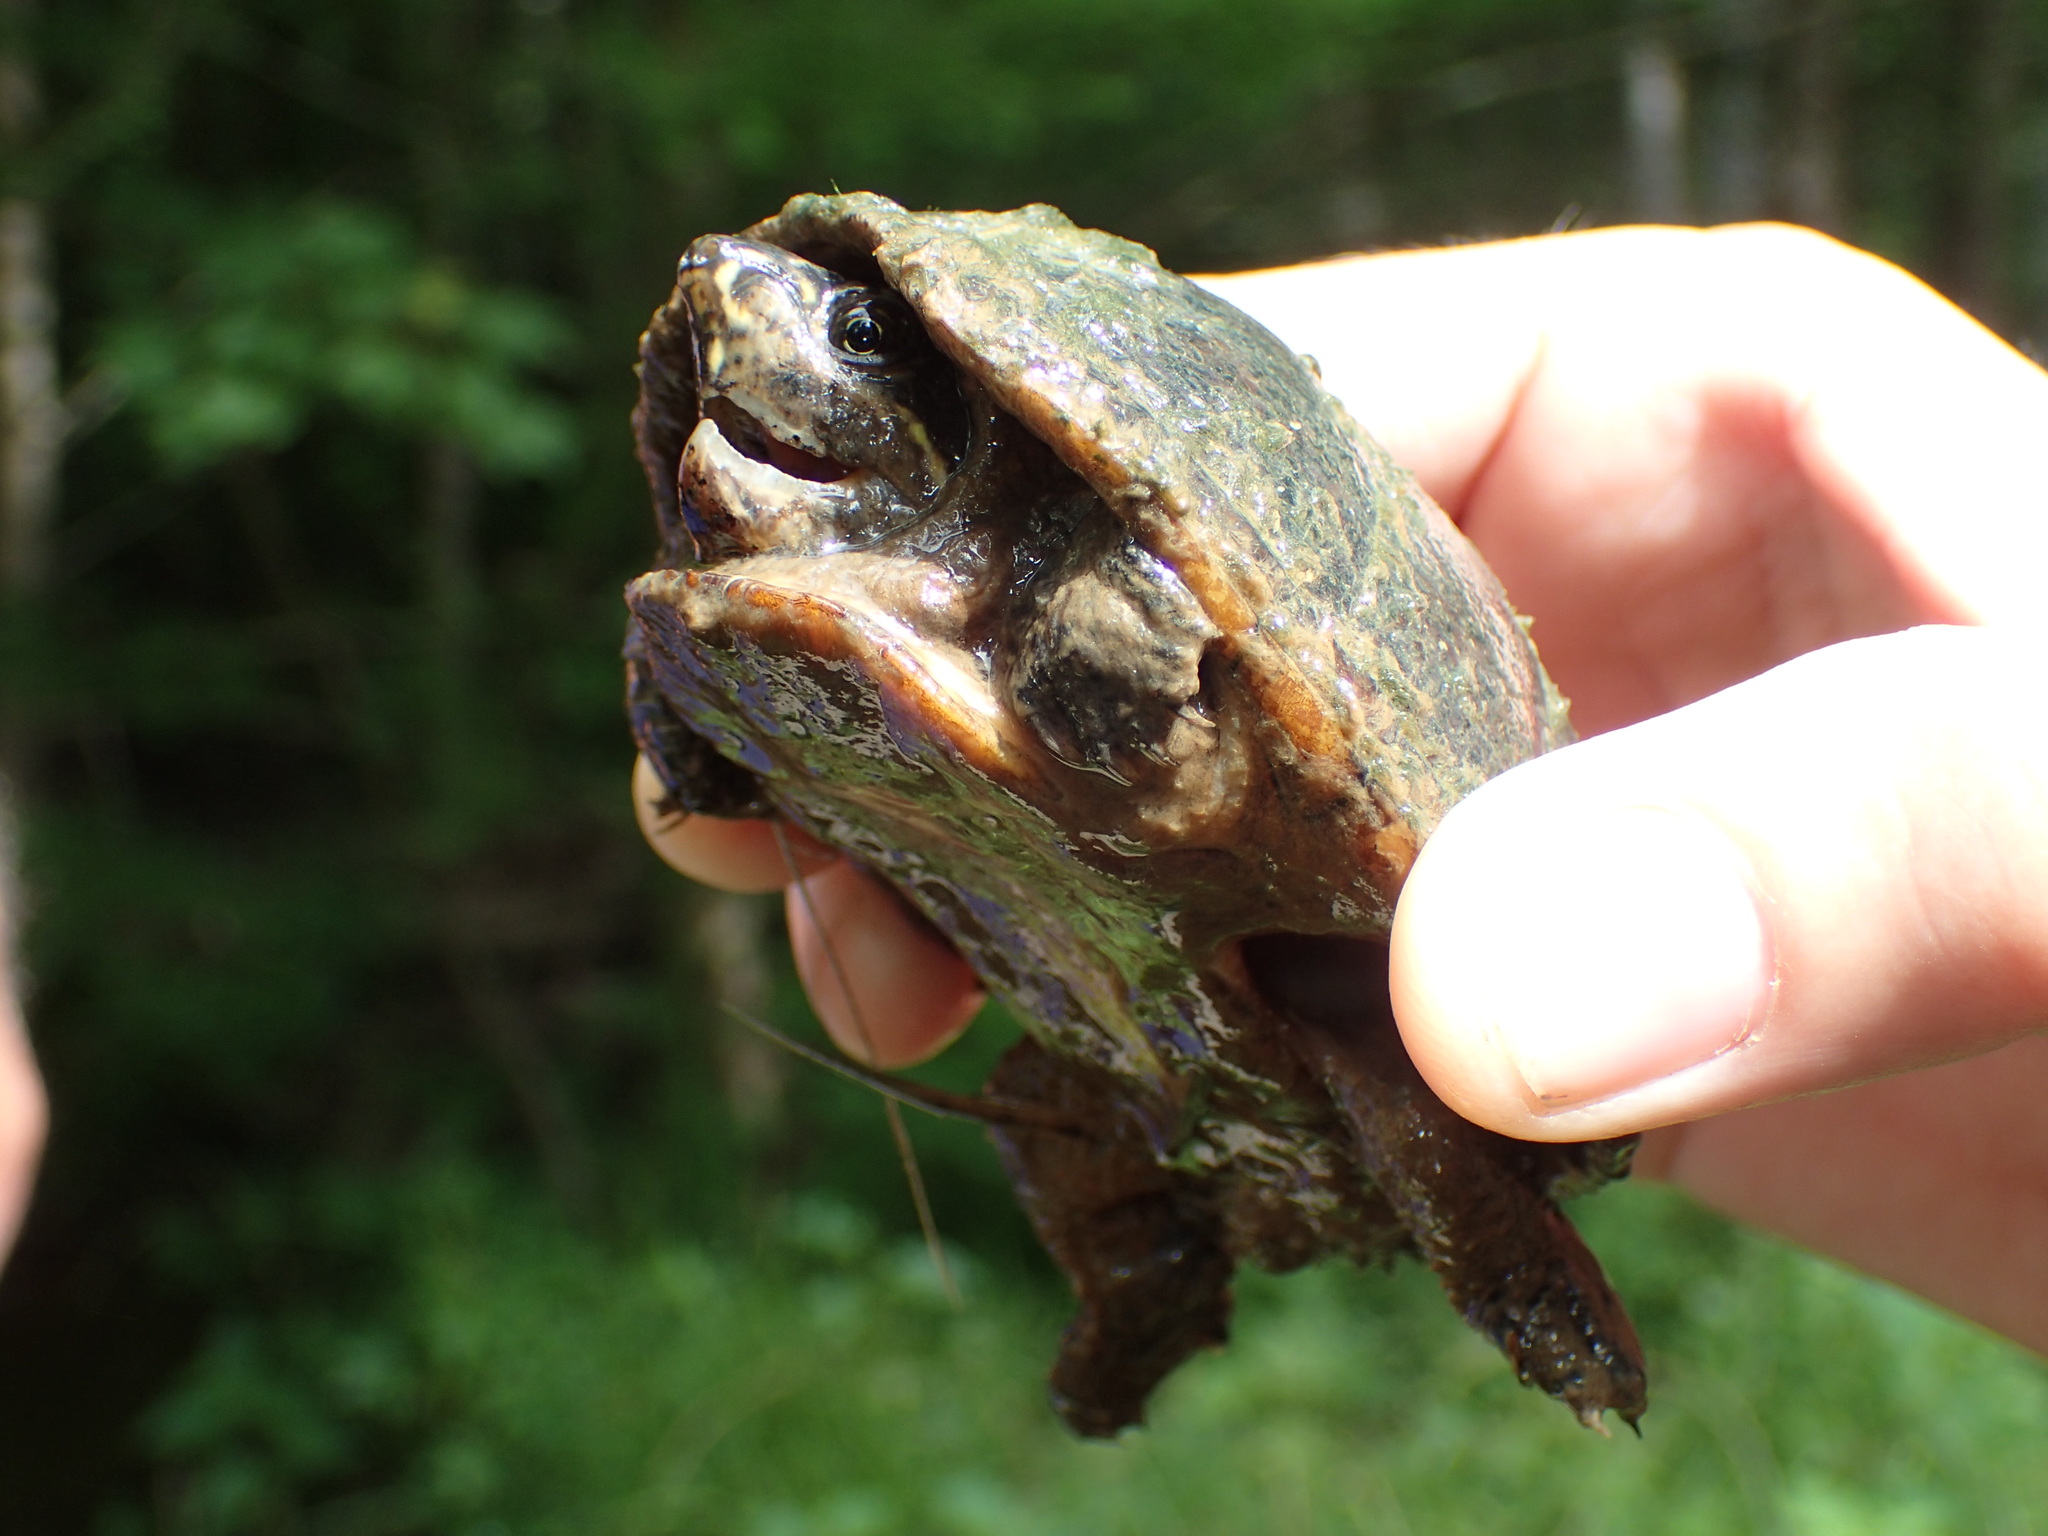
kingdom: Animalia
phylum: Chordata
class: Testudines
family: Kinosternidae
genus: Sternotherus
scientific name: Sternotherus odoratus
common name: Common musk turtle
